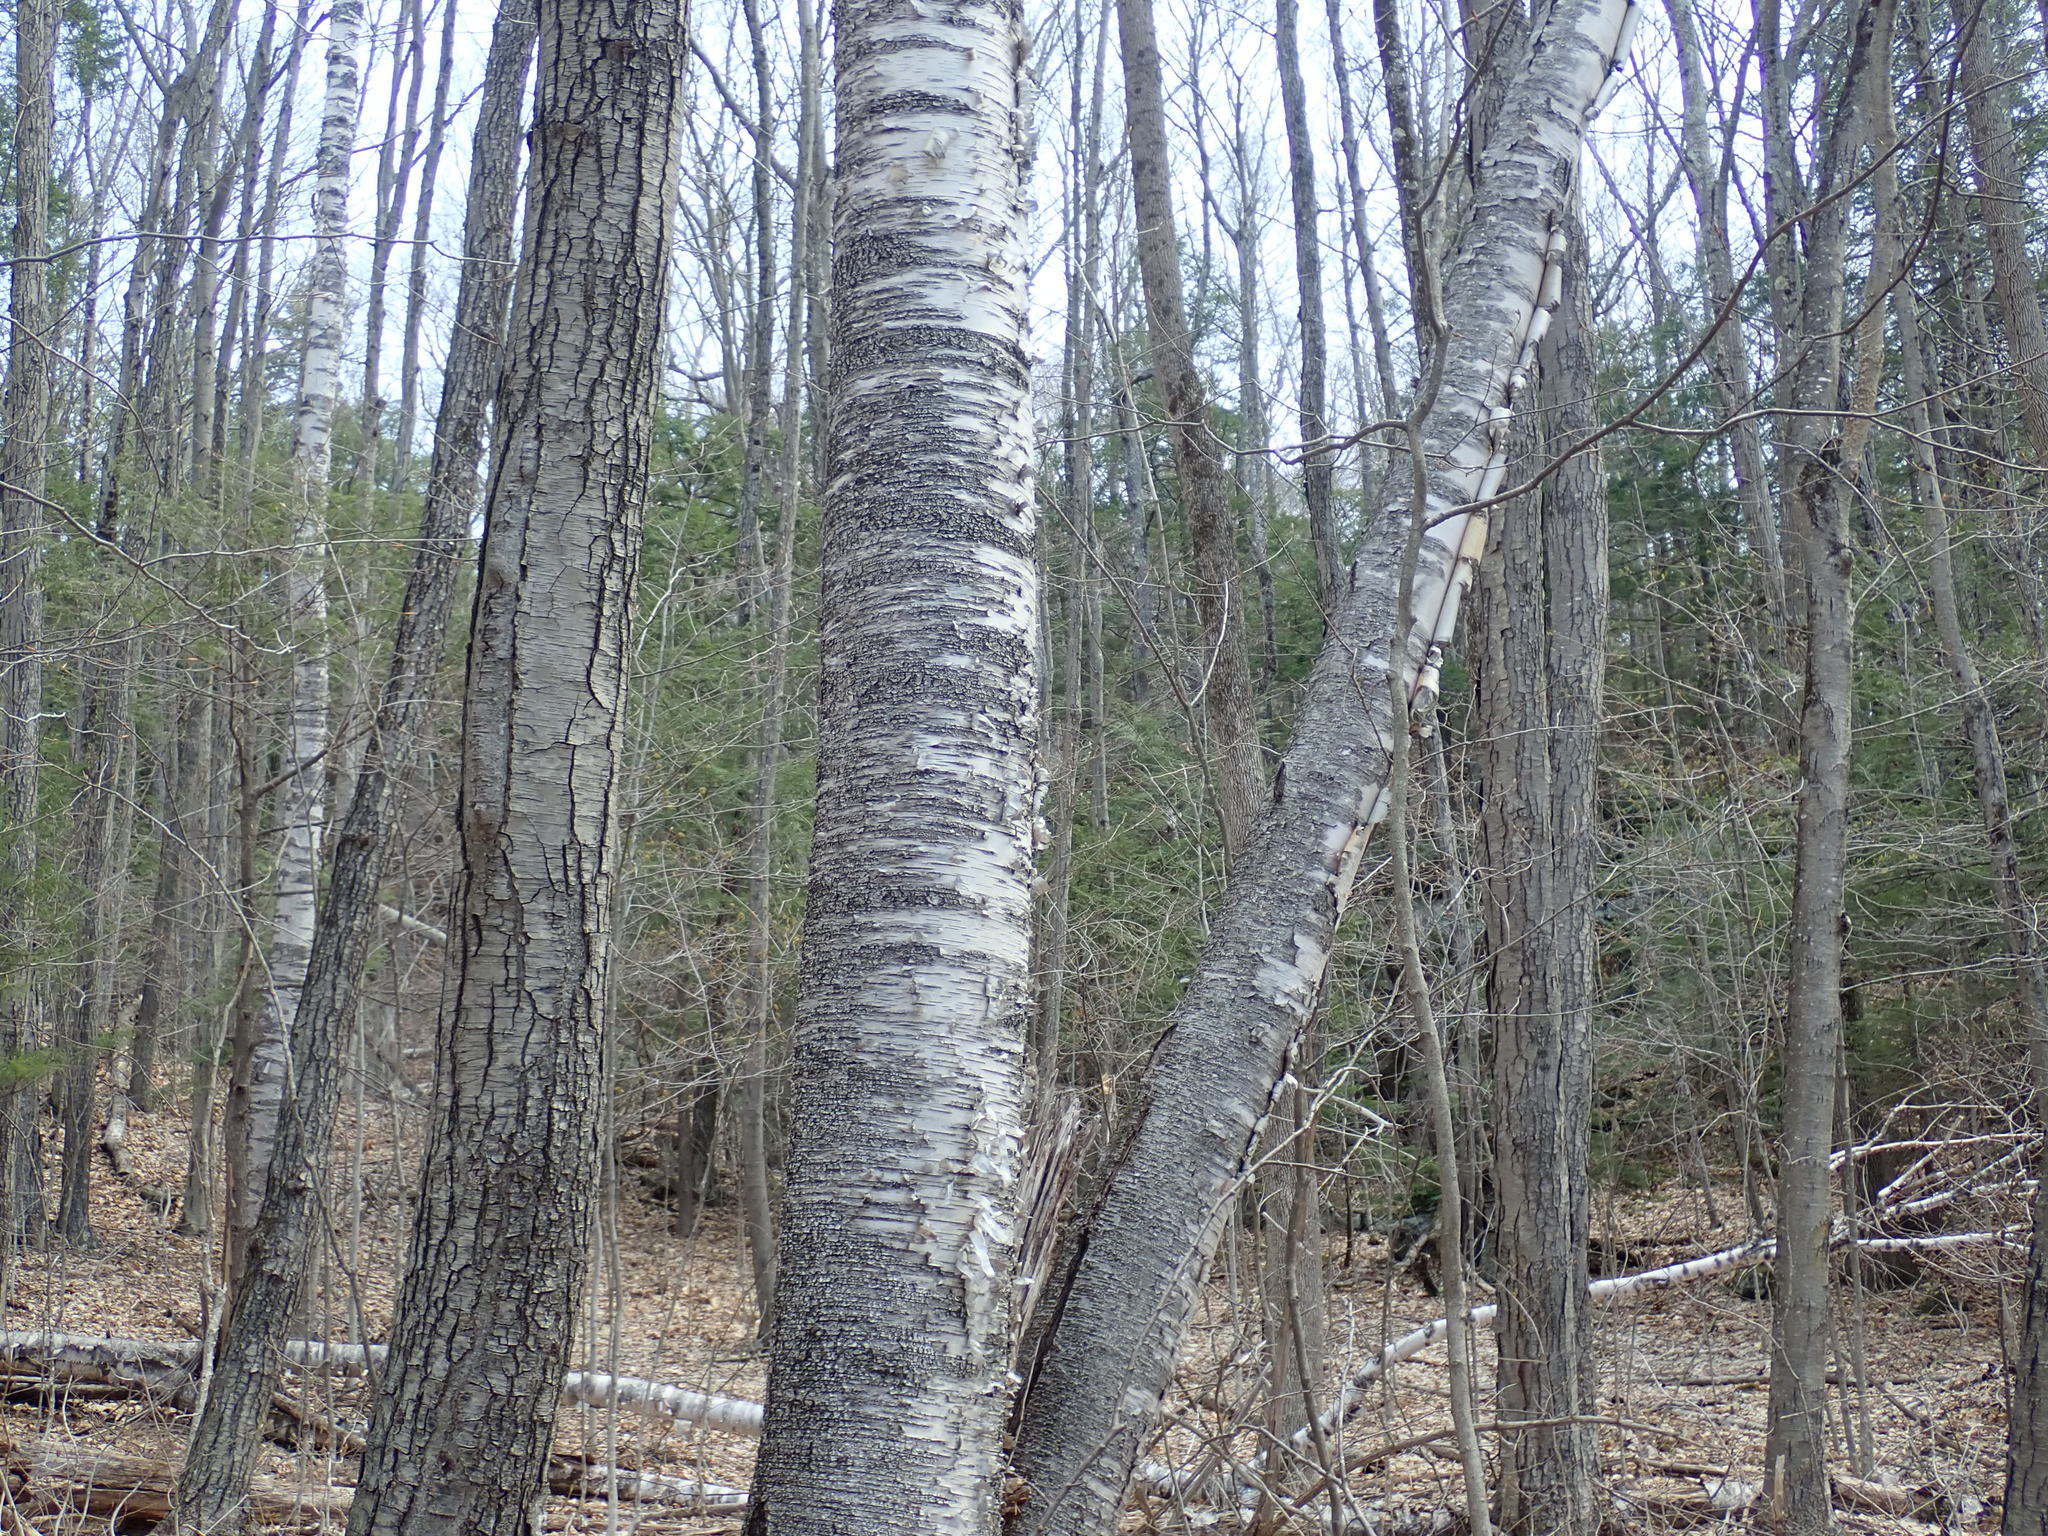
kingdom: Plantae
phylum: Tracheophyta
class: Magnoliopsida
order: Fagales
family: Betulaceae
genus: Betula
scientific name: Betula papyrifera
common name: Paper birch
